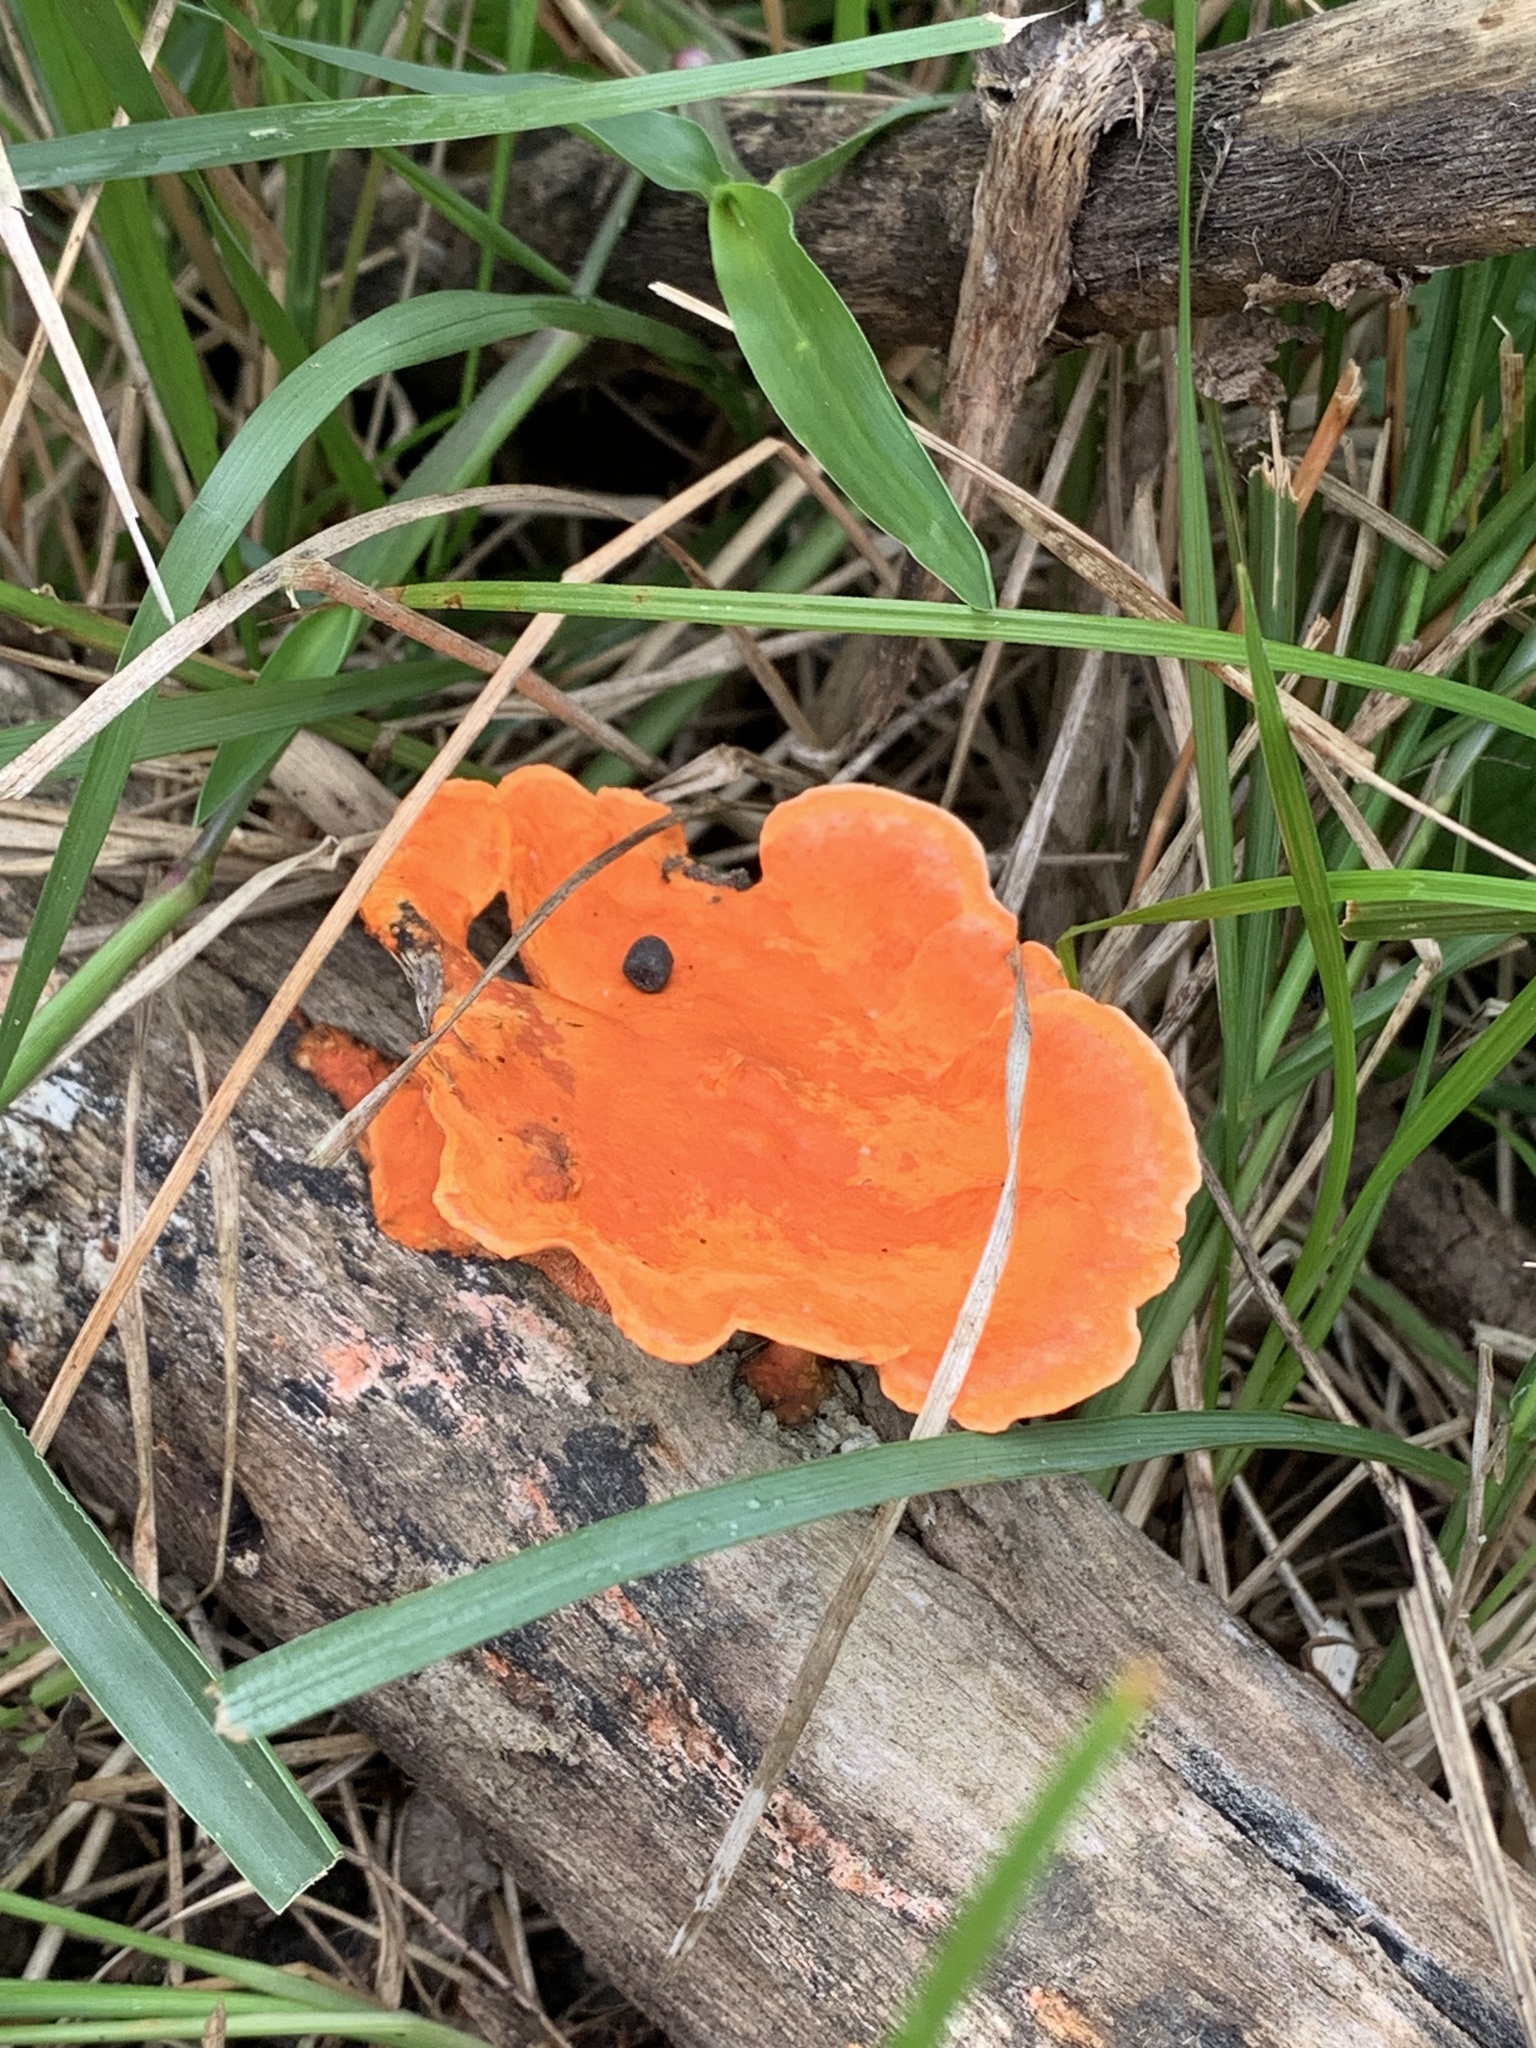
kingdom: Fungi
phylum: Basidiomycota
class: Agaricomycetes
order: Polyporales
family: Polyporaceae
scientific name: Polyporaceae
